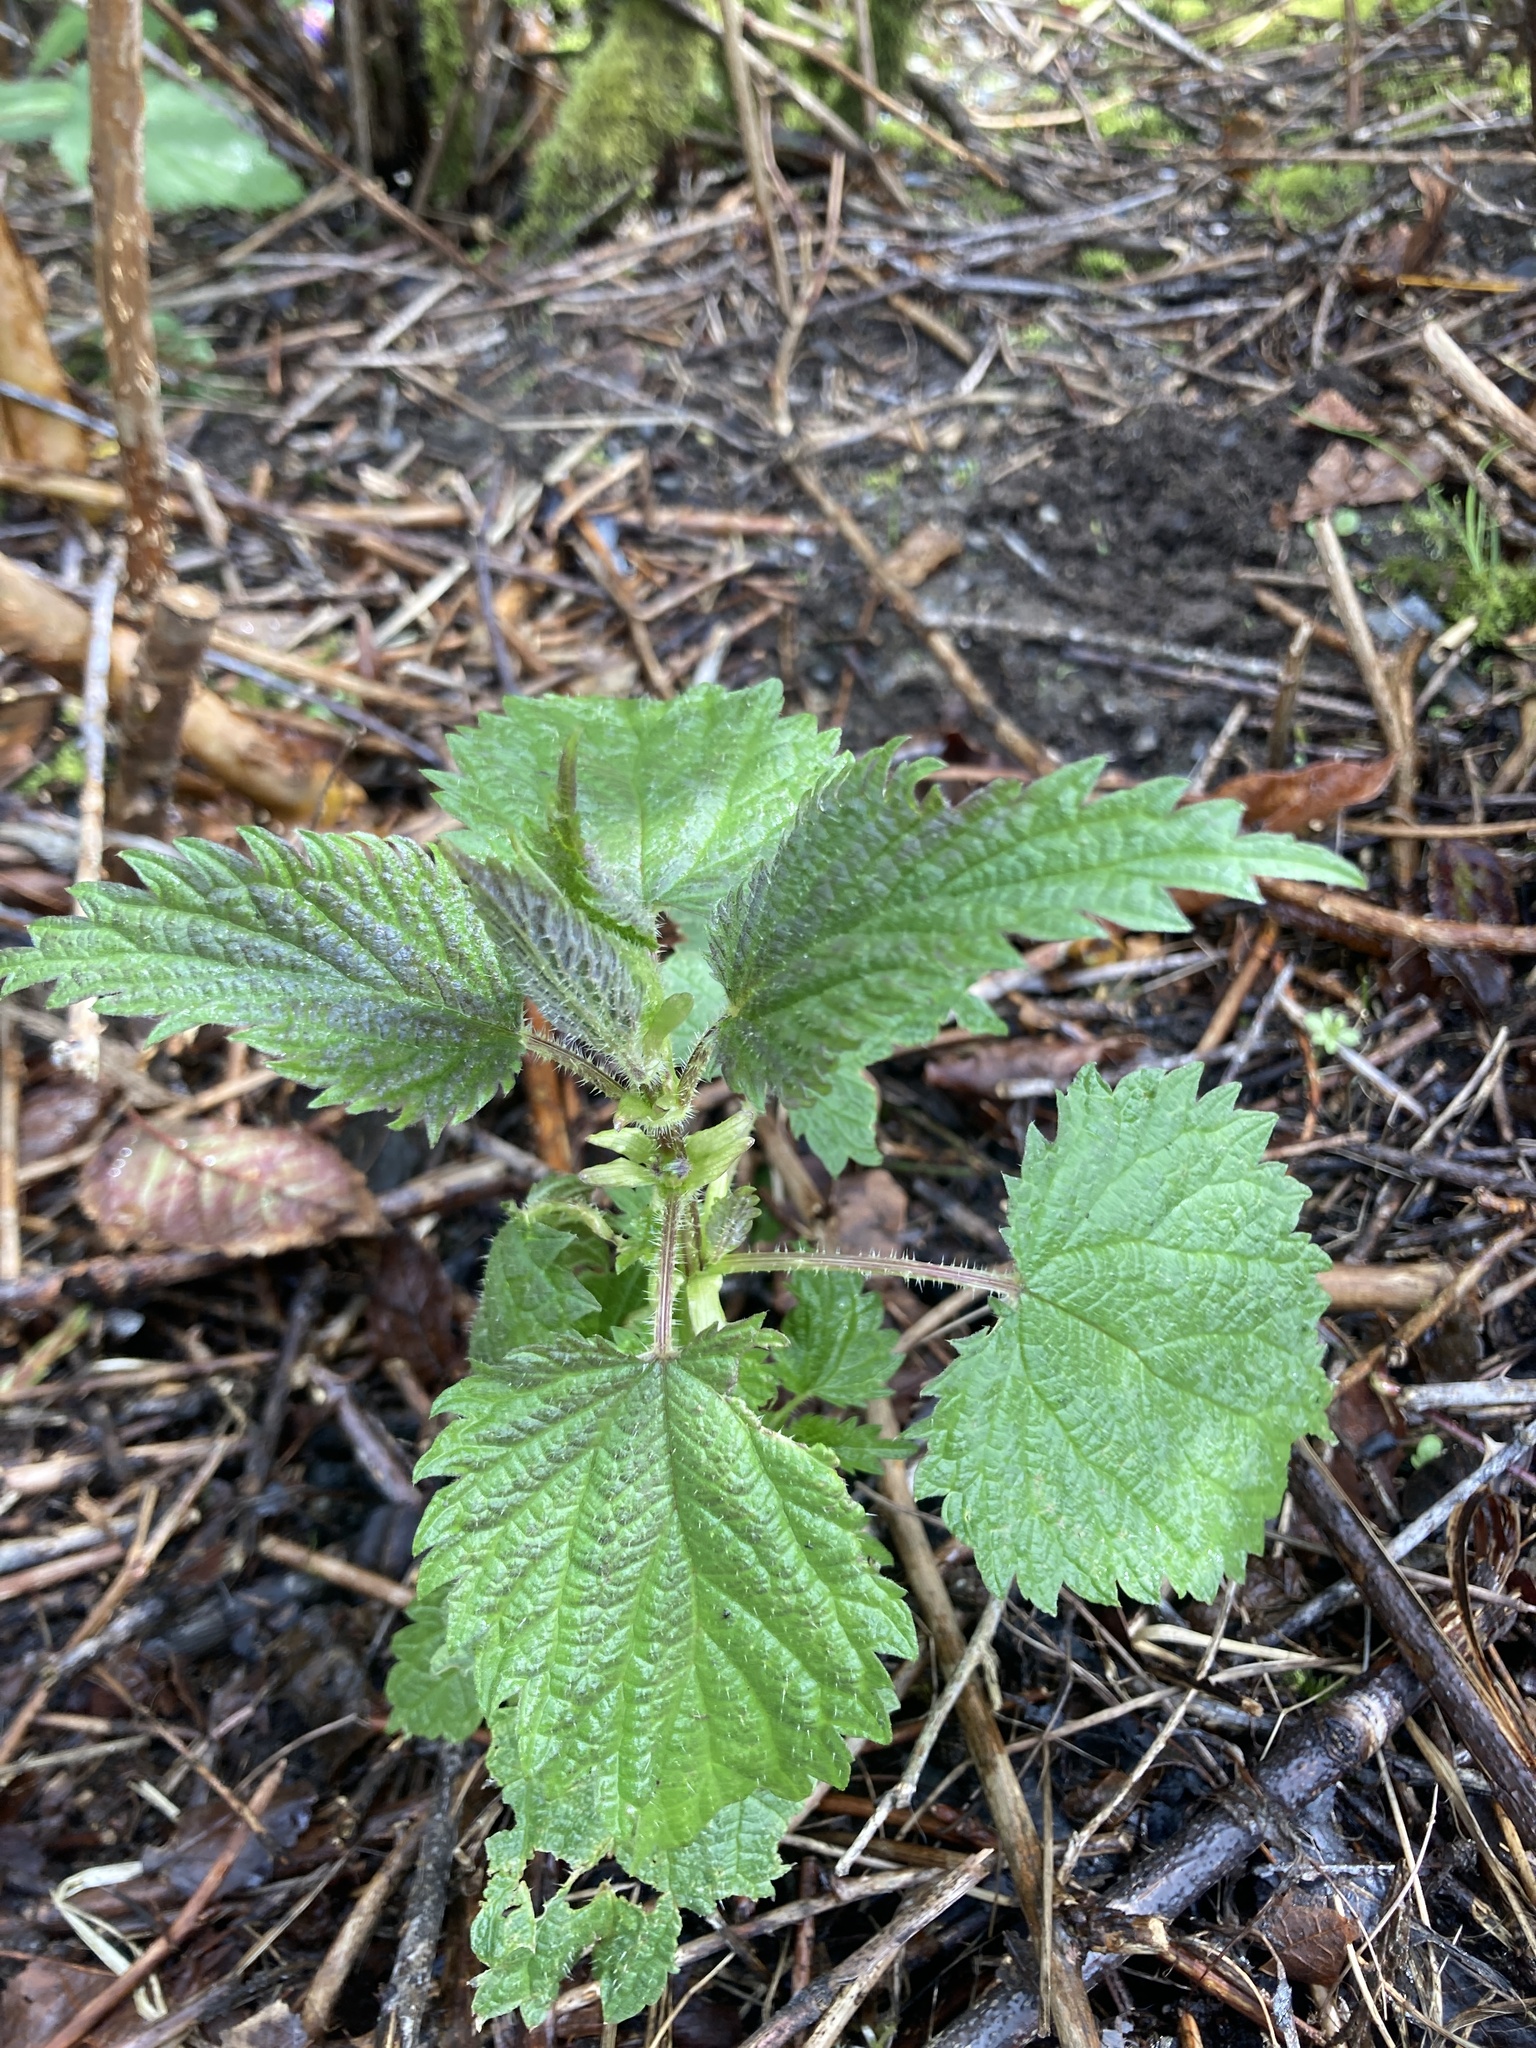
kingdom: Plantae
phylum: Tracheophyta
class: Magnoliopsida
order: Rosales
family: Urticaceae
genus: Urtica
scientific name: Urtica gracilis
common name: Slender stinging nettle
